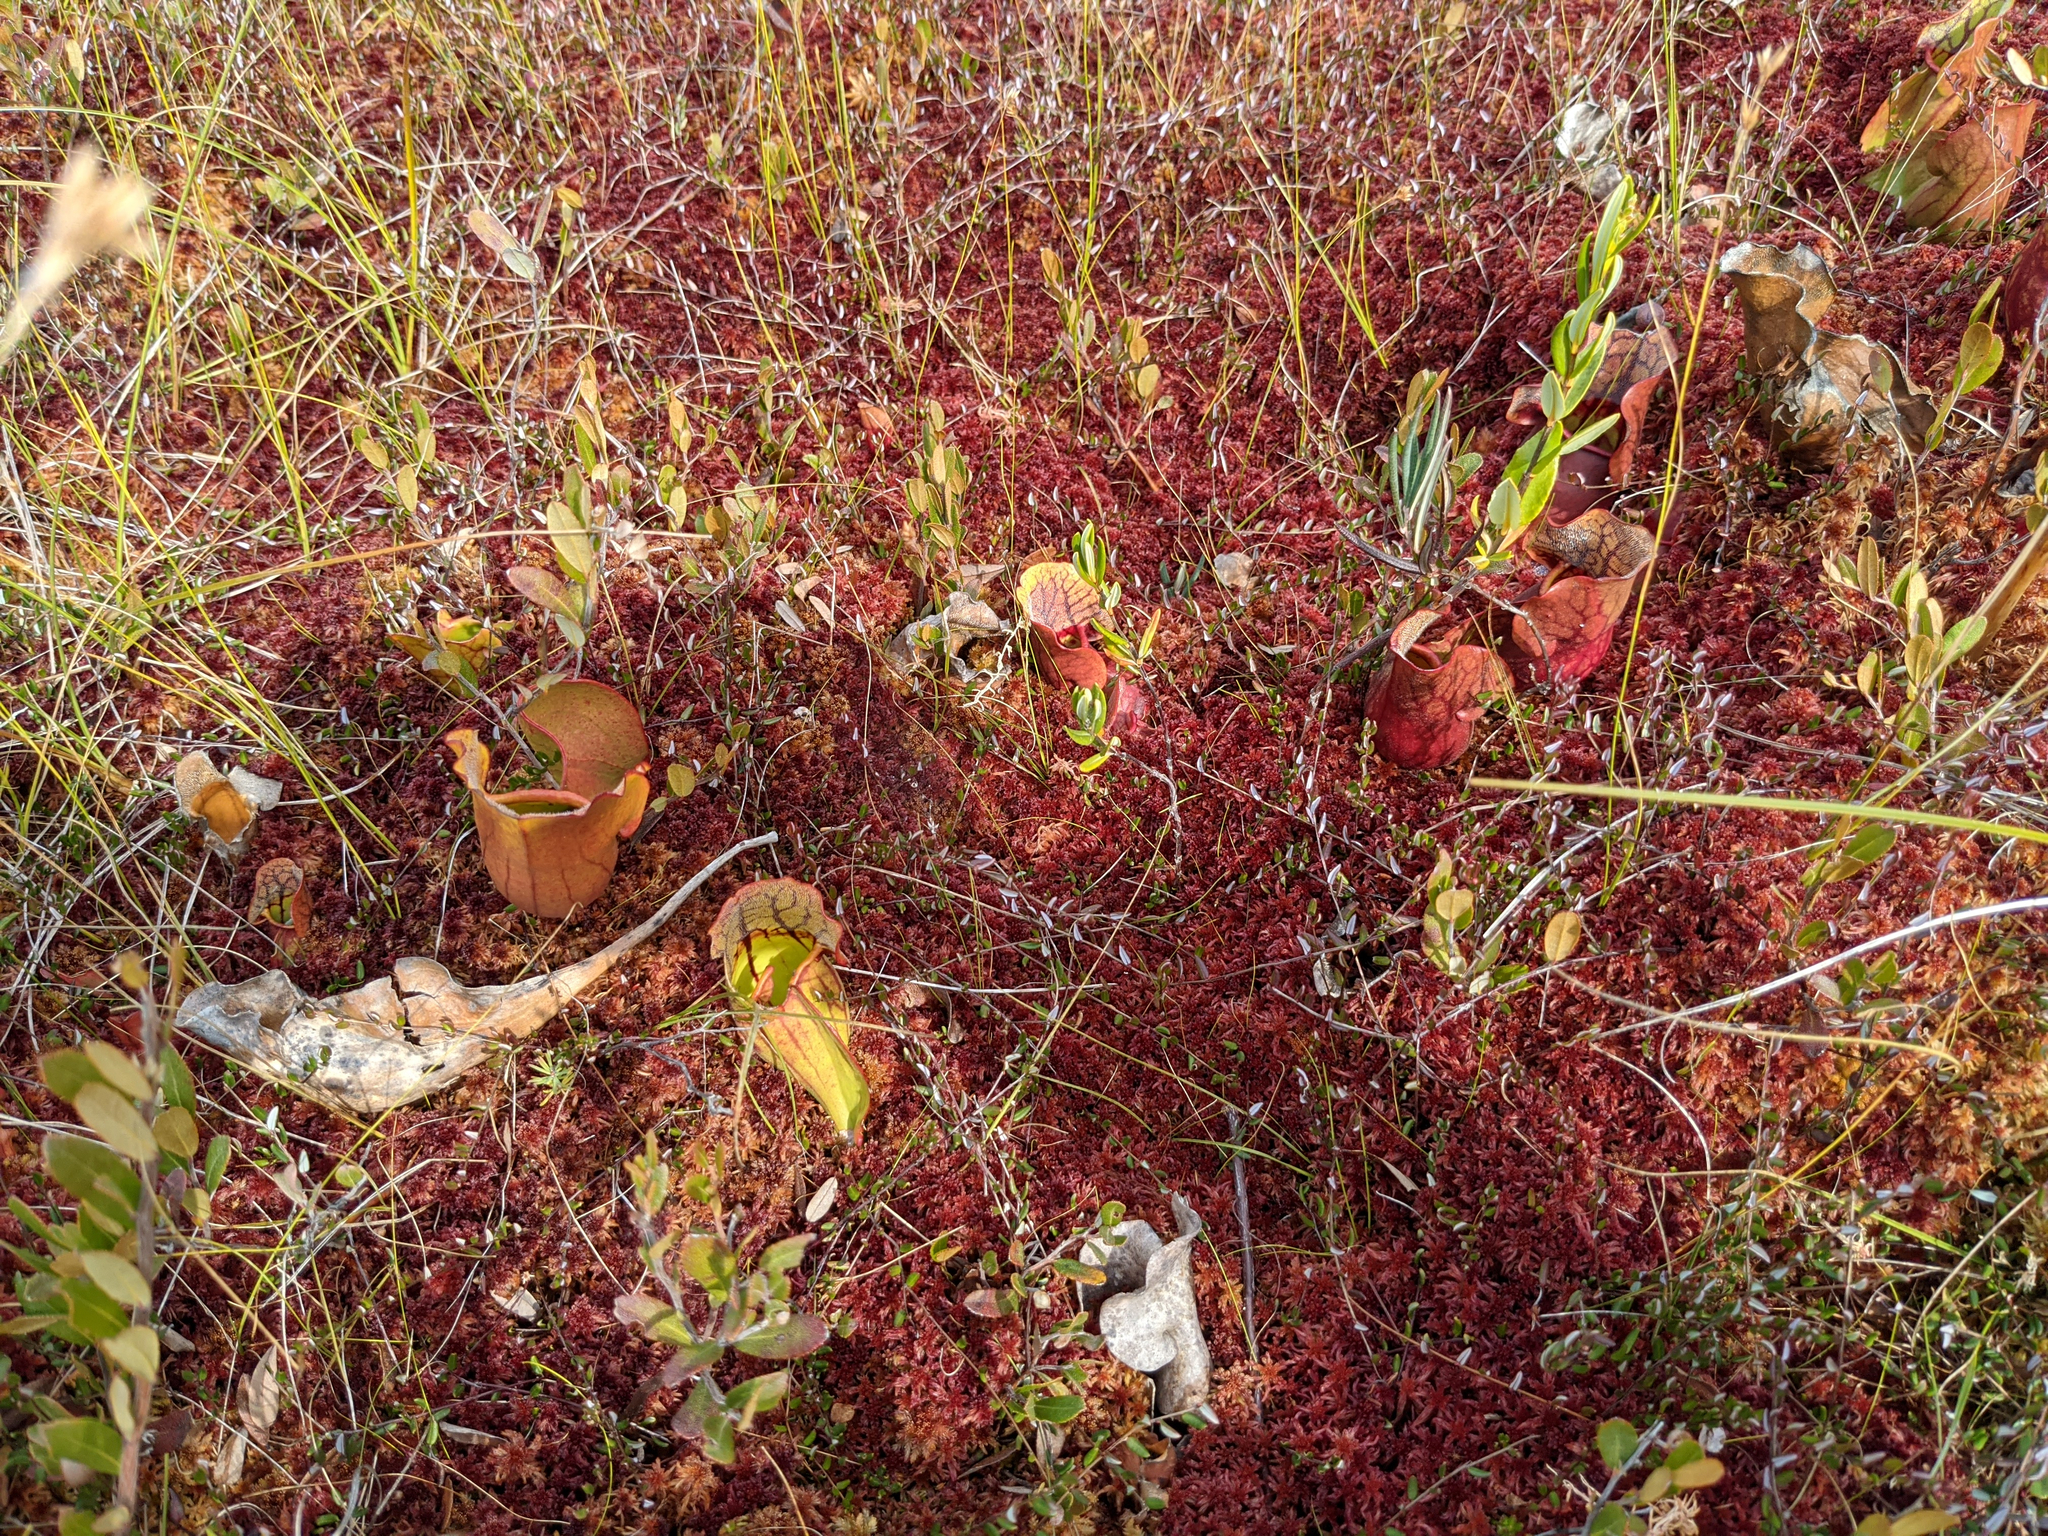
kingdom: Plantae
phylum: Tracheophyta
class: Magnoliopsida
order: Ericales
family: Sarraceniaceae
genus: Sarracenia
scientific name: Sarracenia purpurea
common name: Pitcherplant
